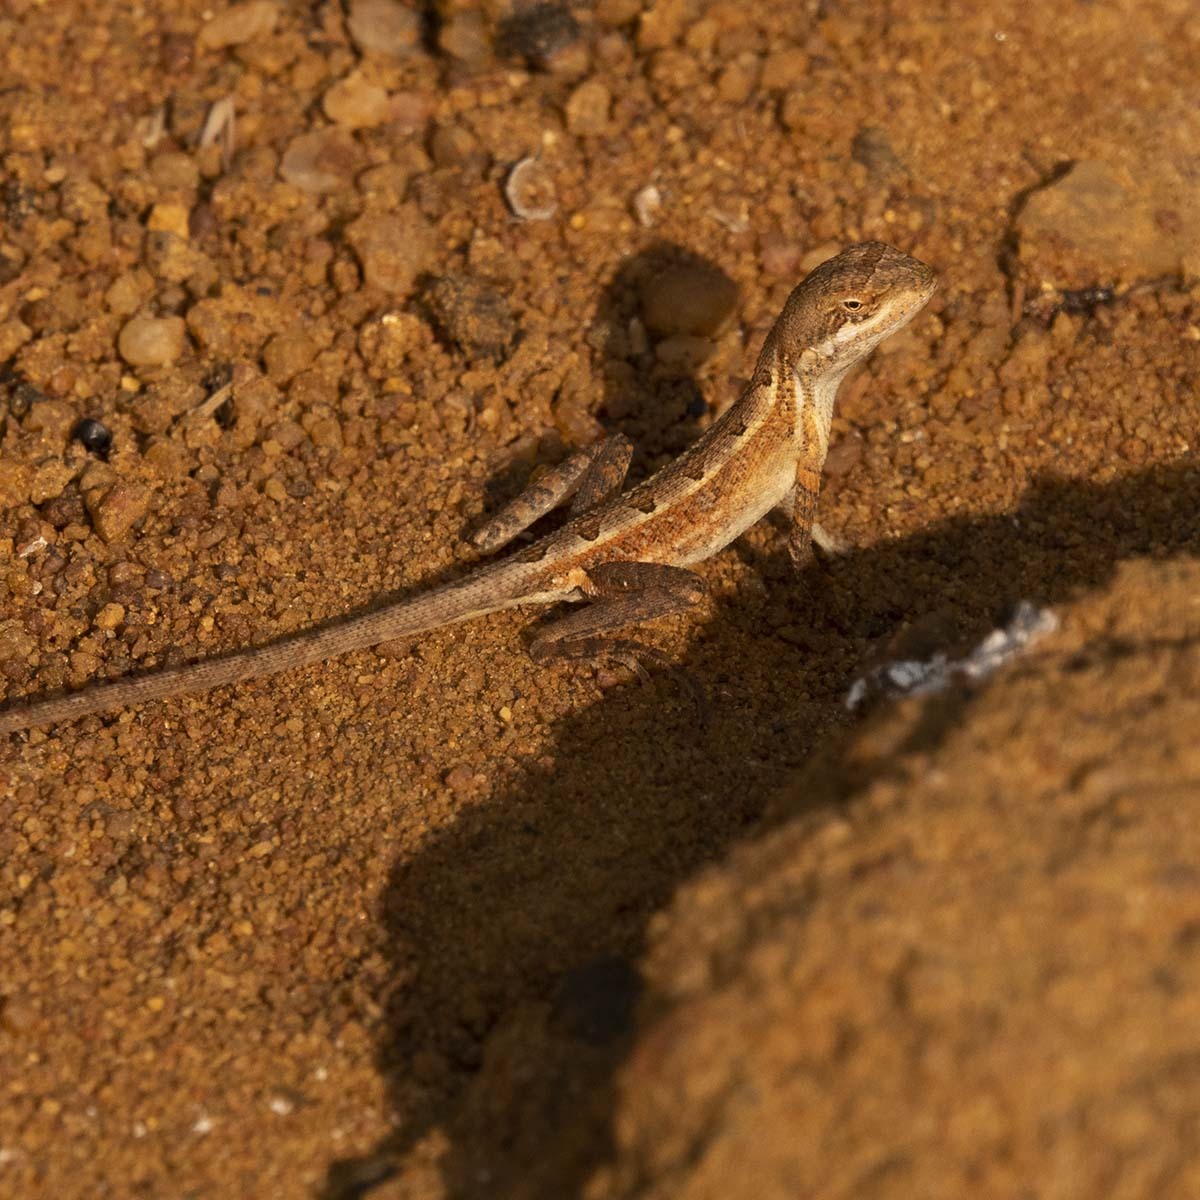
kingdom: Animalia
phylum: Chordata
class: Squamata
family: Agamidae
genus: Sitana
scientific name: Sitana marudhamneydhal
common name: Attenborough’s fan-throated lizard
